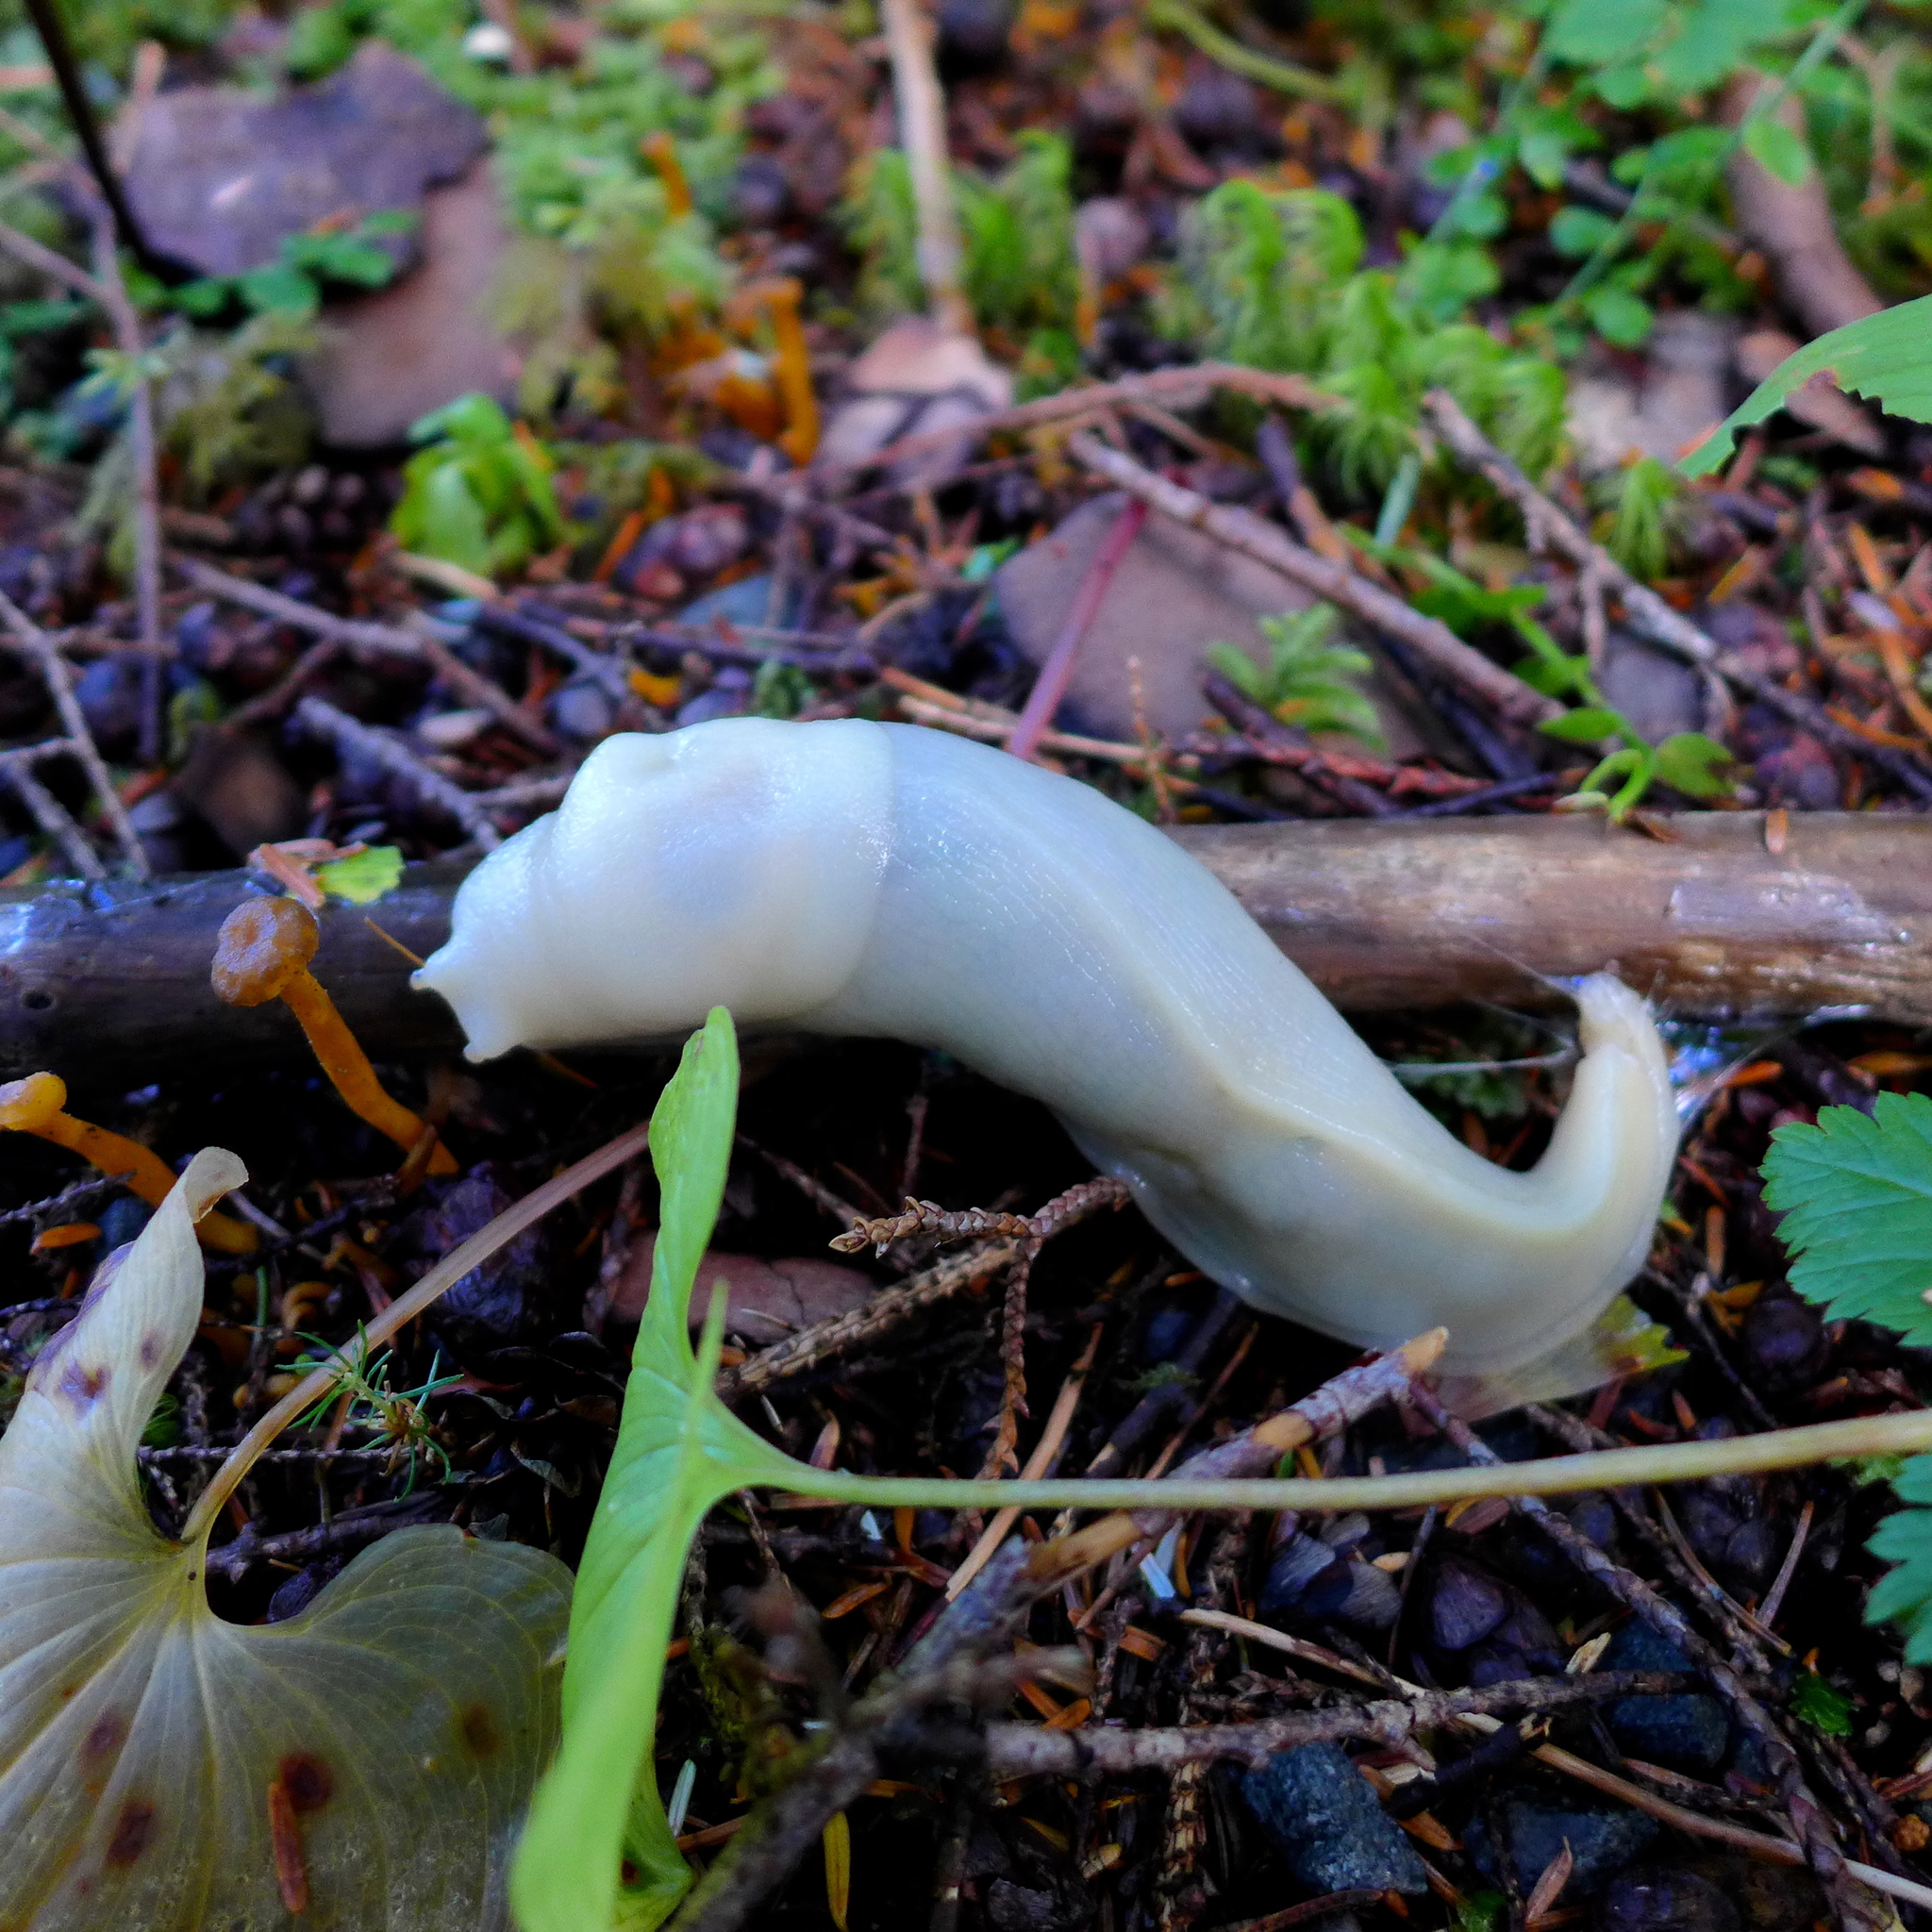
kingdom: Animalia
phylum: Mollusca
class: Gastropoda
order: Stylommatophora
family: Ariolimacidae
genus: Ariolimax
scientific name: Ariolimax columbianus
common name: Pacific banana slug
